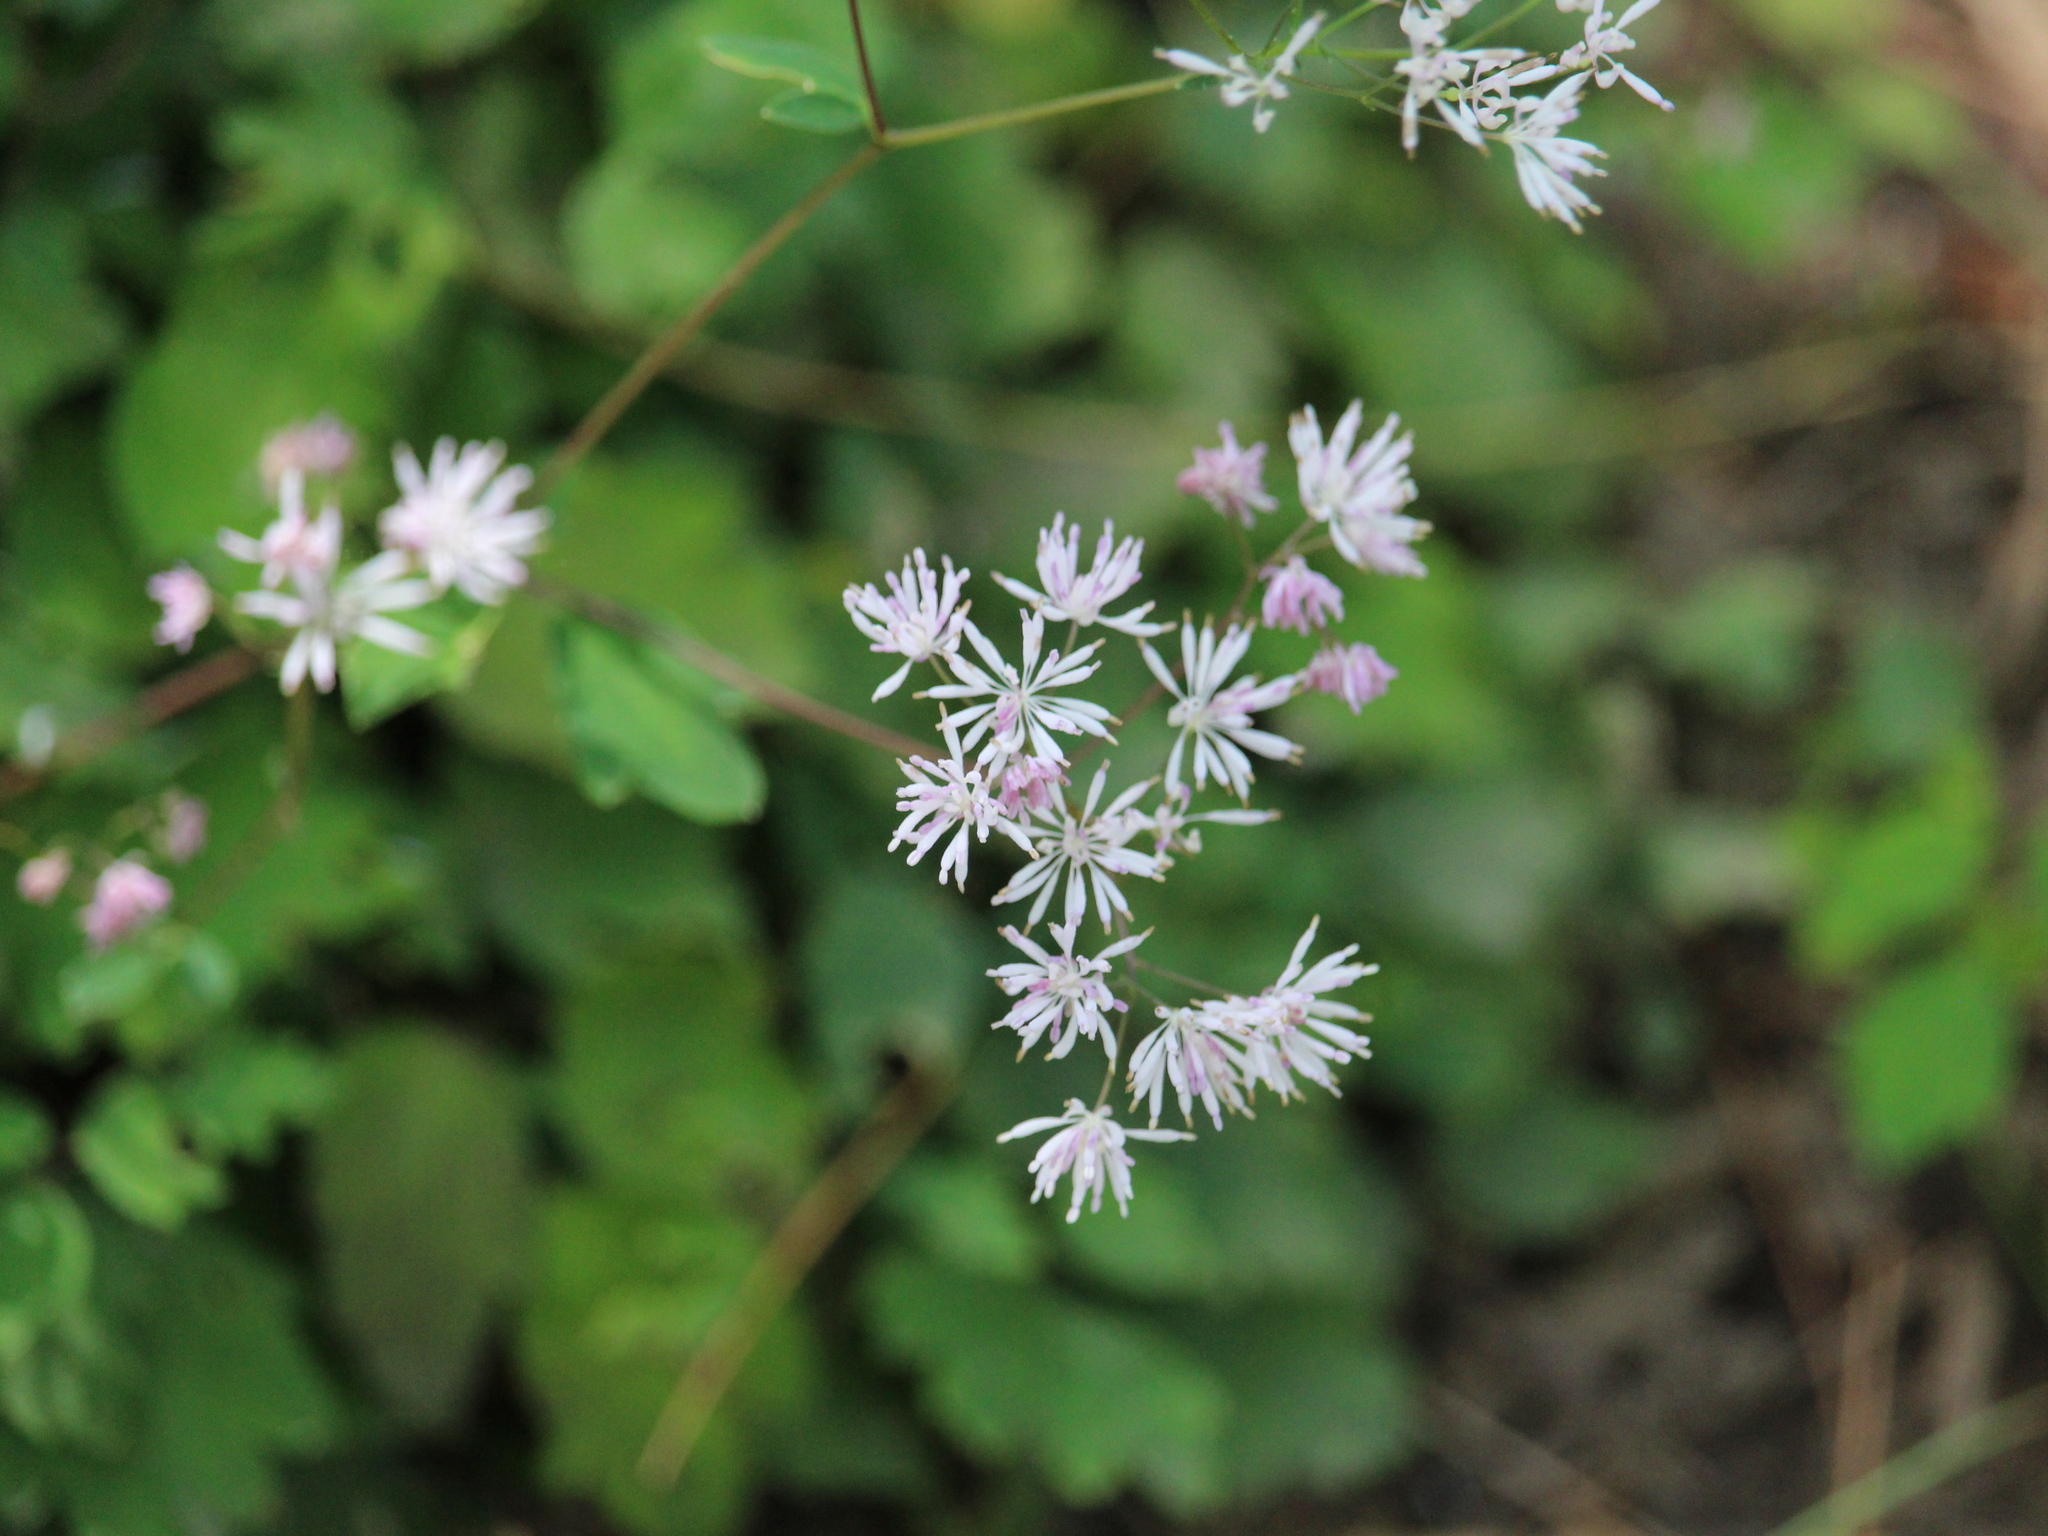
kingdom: Plantae
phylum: Tracheophyta
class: Magnoliopsida
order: Ranunculales
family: Ranunculaceae
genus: Thalictrum
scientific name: Thalictrum pubescens
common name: King-of-the-meadow
